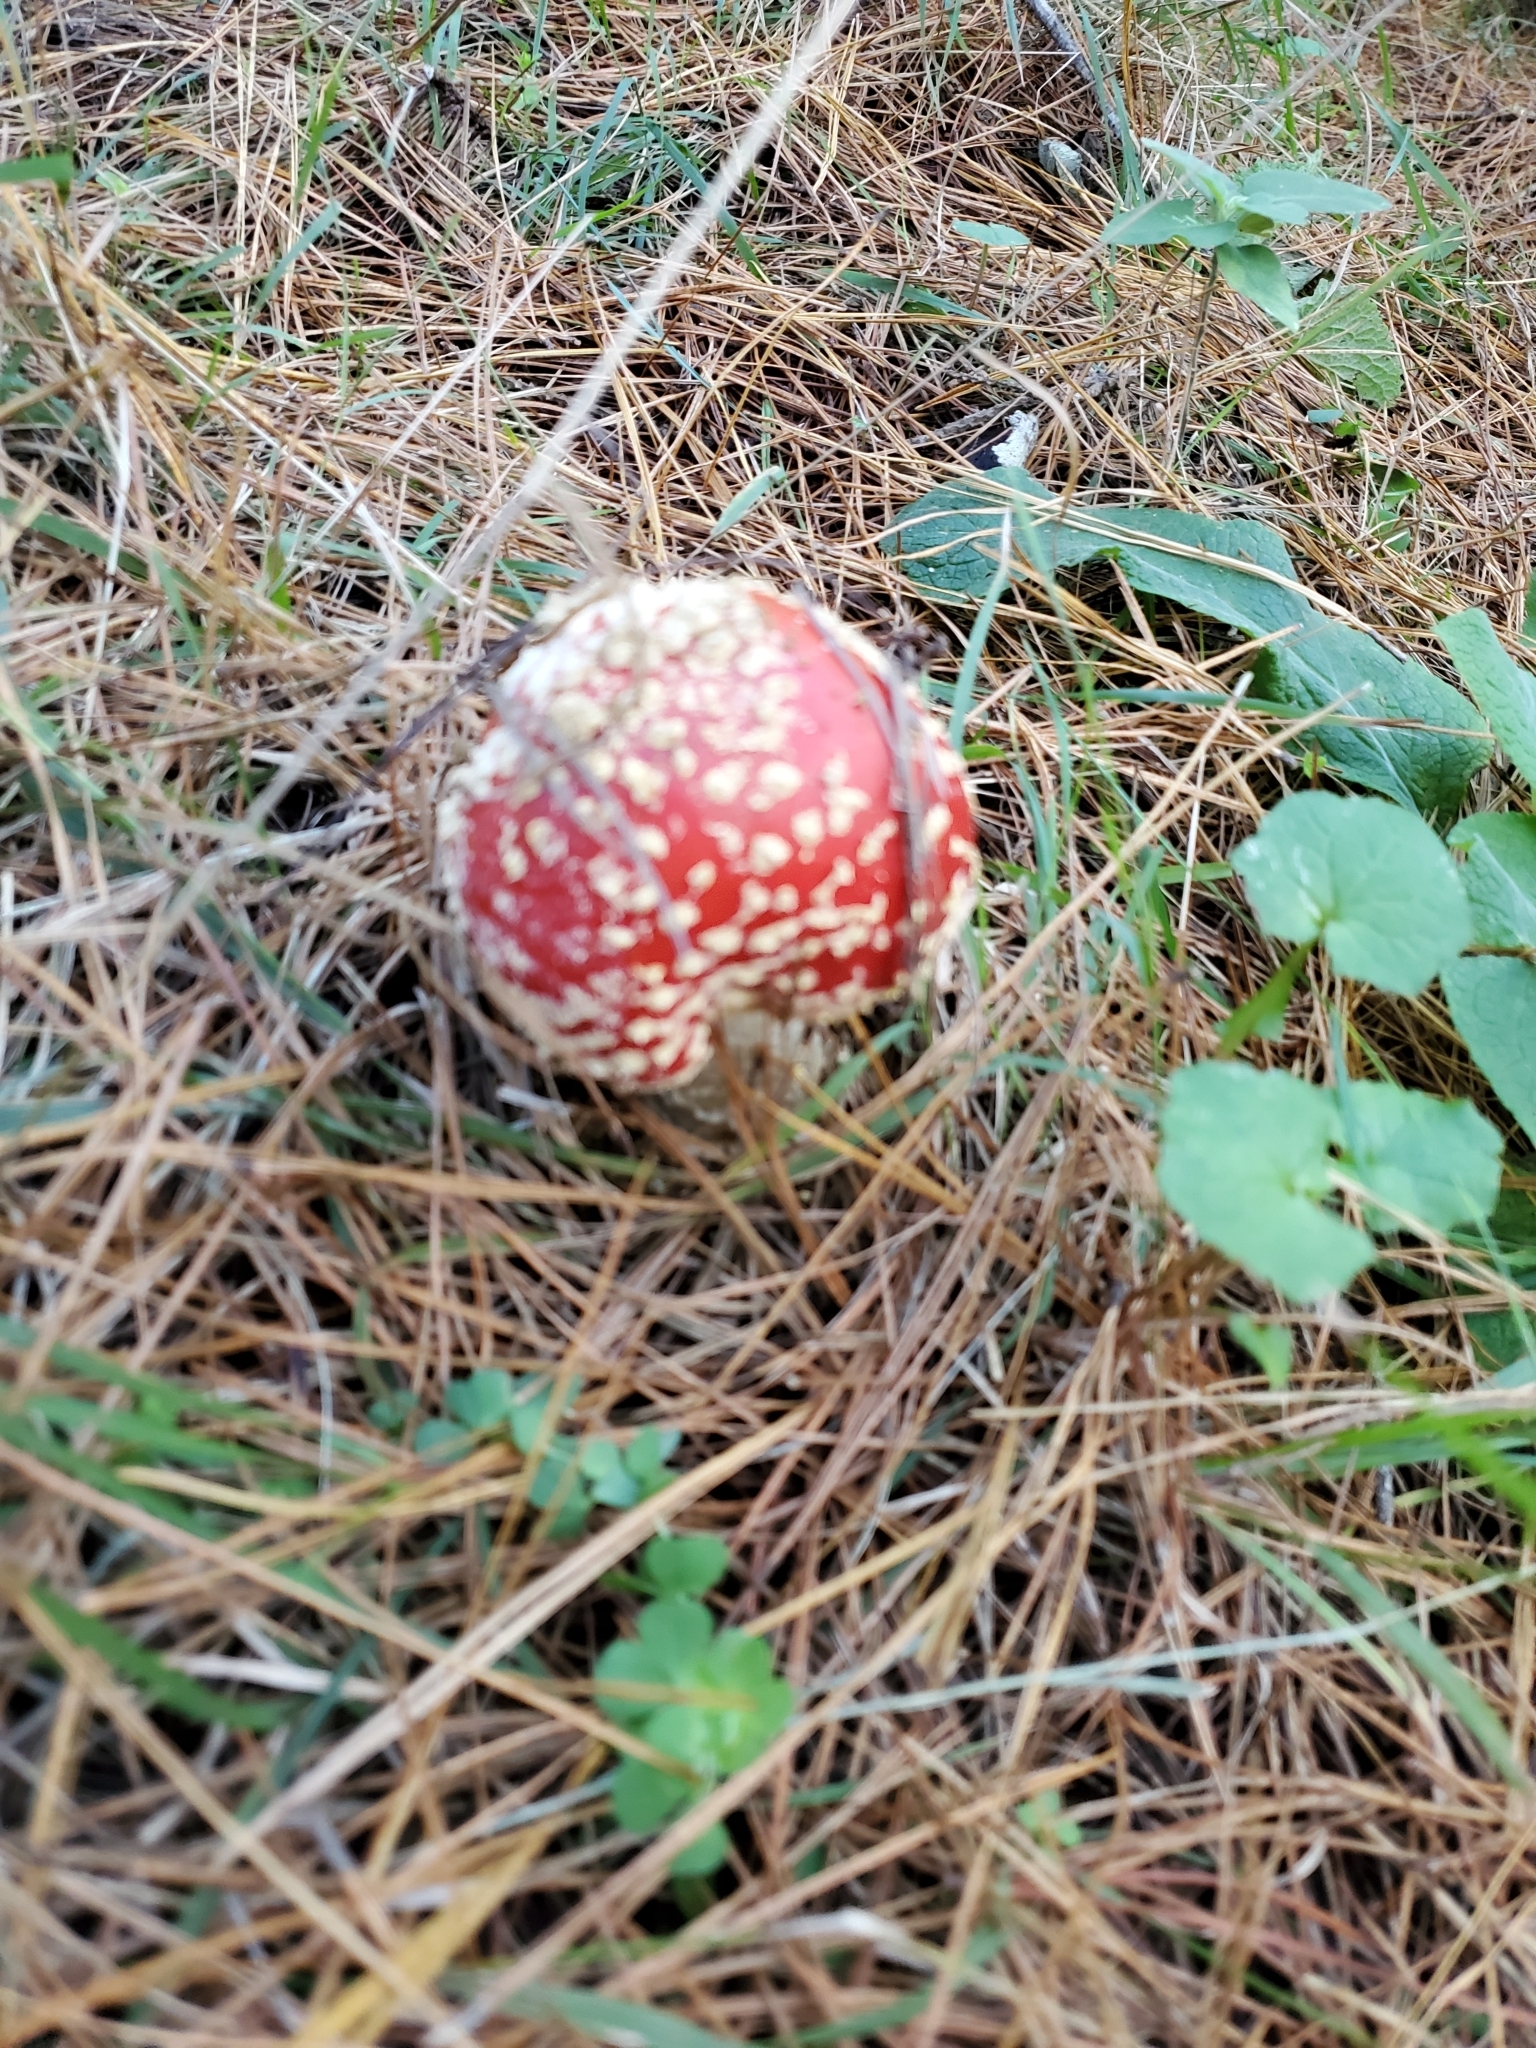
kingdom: Fungi
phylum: Basidiomycota
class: Agaricomycetes
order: Agaricales
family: Amanitaceae
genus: Amanita
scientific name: Amanita muscaria
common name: Fly agaric
